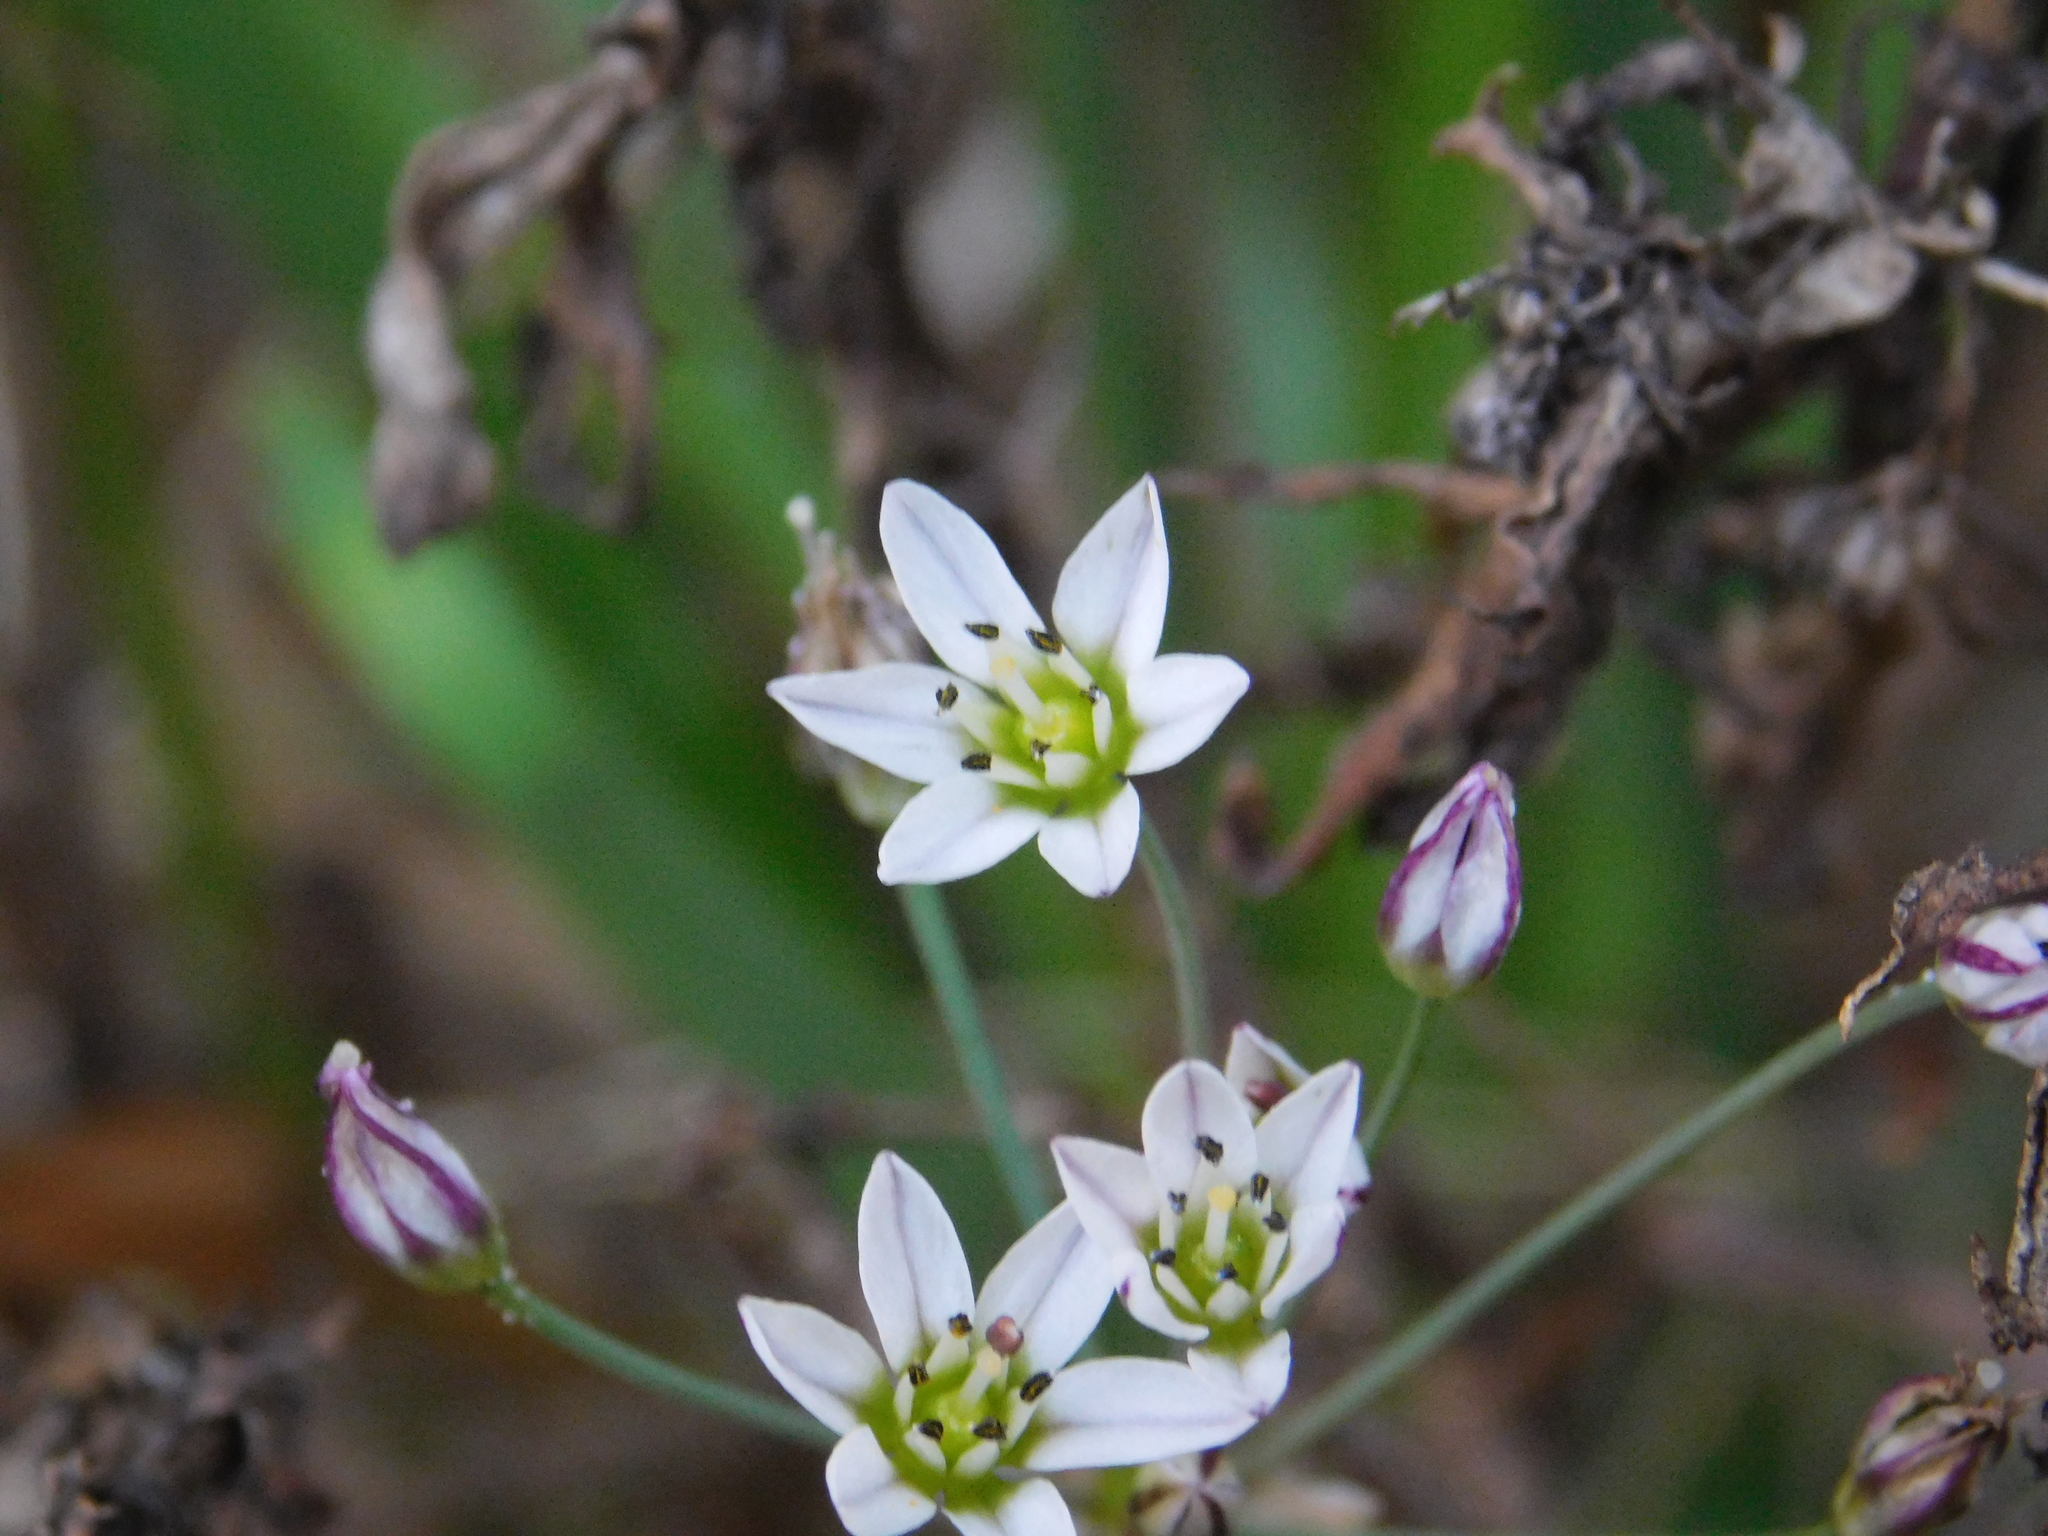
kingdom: Plantae
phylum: Tracheophyta
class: Liliopsida
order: Asparagales
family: Amaryllidaceae
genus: Nothoscordum
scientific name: Nothoscordum gracile
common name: Slender false garlic
